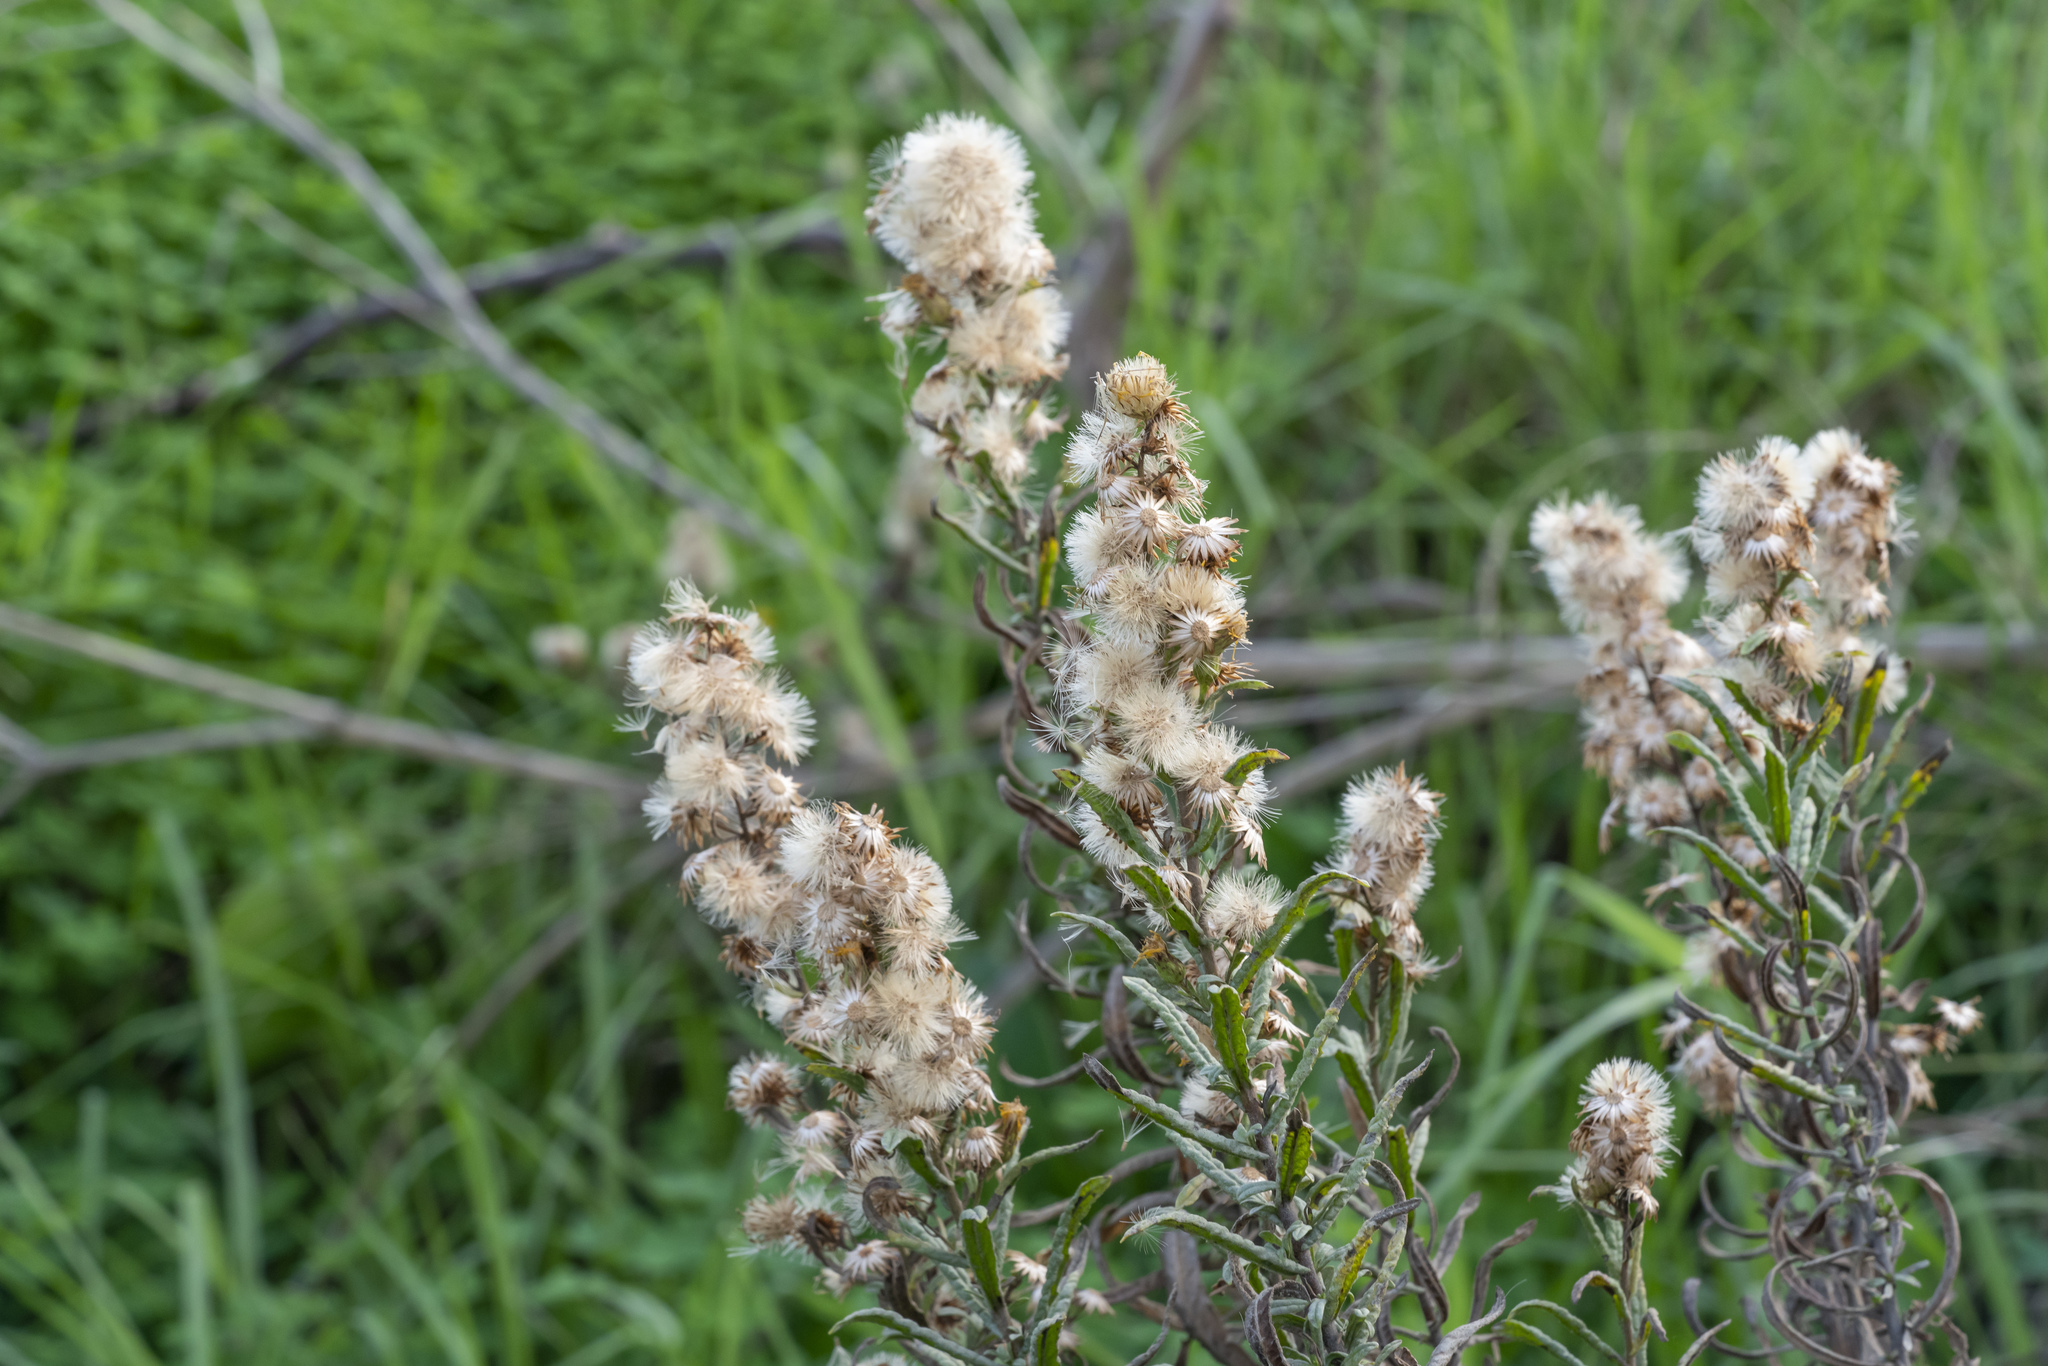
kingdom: Plantae
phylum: Tracheophyta
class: Magnoliopsida
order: Asterales
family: Asteraceae
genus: Dittrichia
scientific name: Dittrichia viscosa
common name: Woody fleabane
